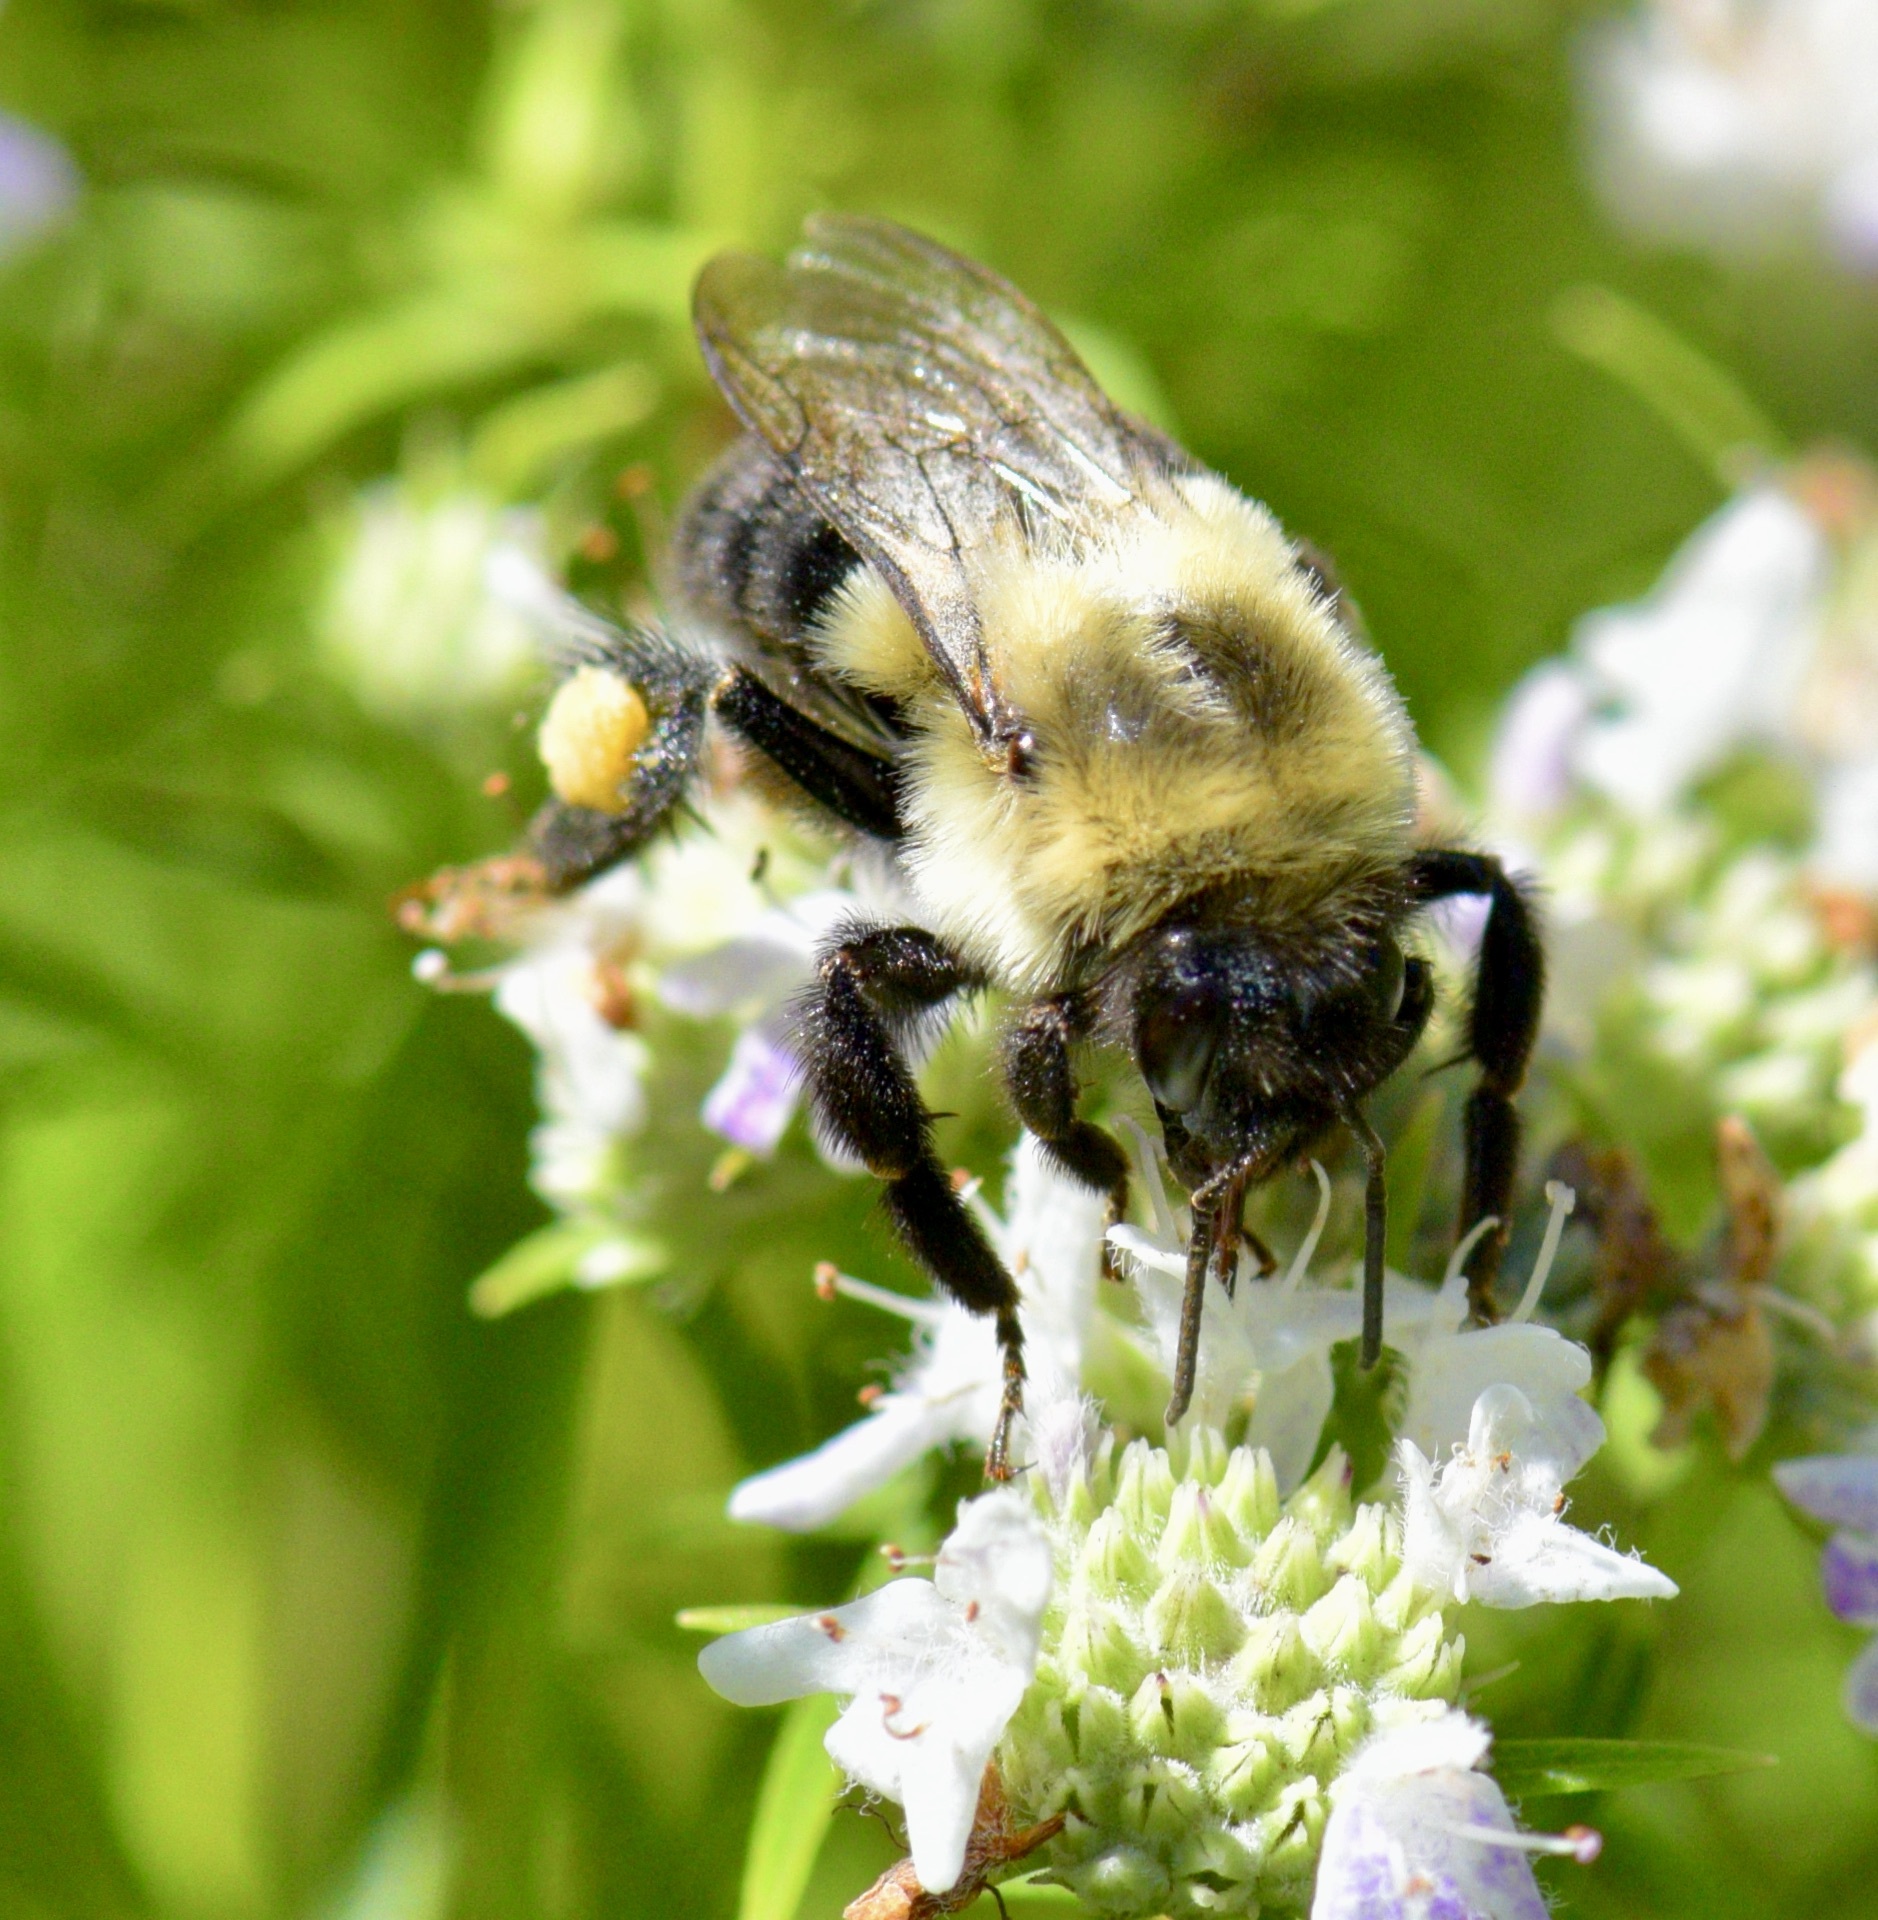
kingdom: Animalia
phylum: Arthropoda
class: Insecta
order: Hymenoptera
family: Apidae
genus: Bombus
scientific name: Bombus impatiens
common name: Common eastern bumble bee
